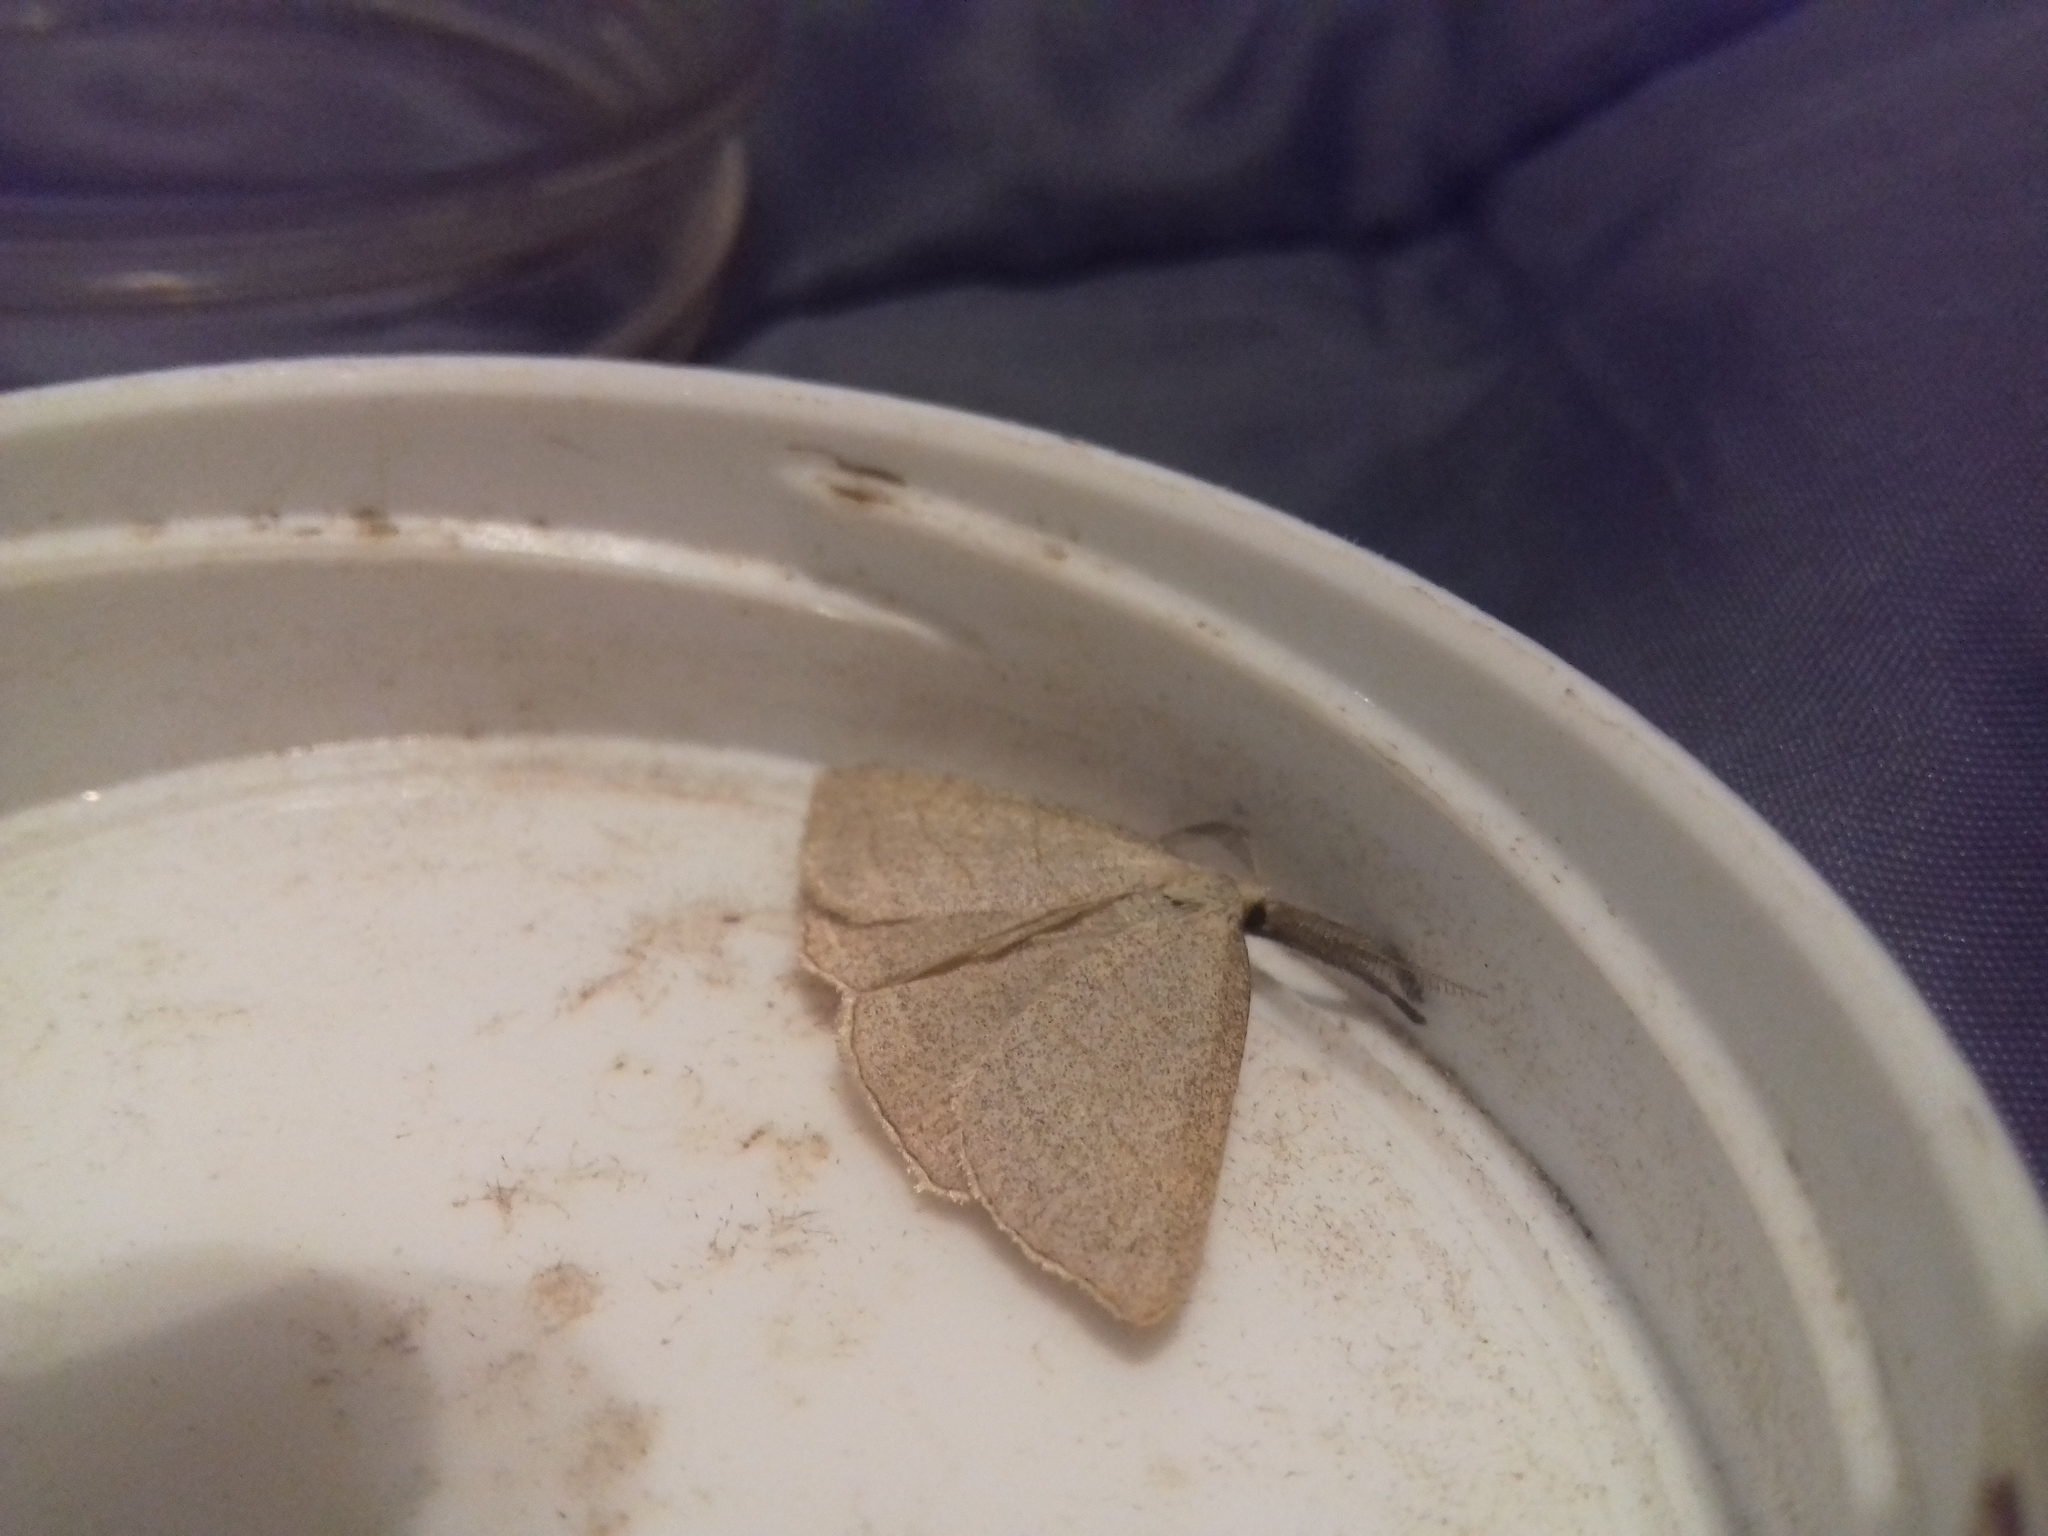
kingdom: Animalia
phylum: Arthropoda
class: Insecta
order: Lepidoptera
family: Erebidae
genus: Polypogon
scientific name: Polypogon tentacularia
